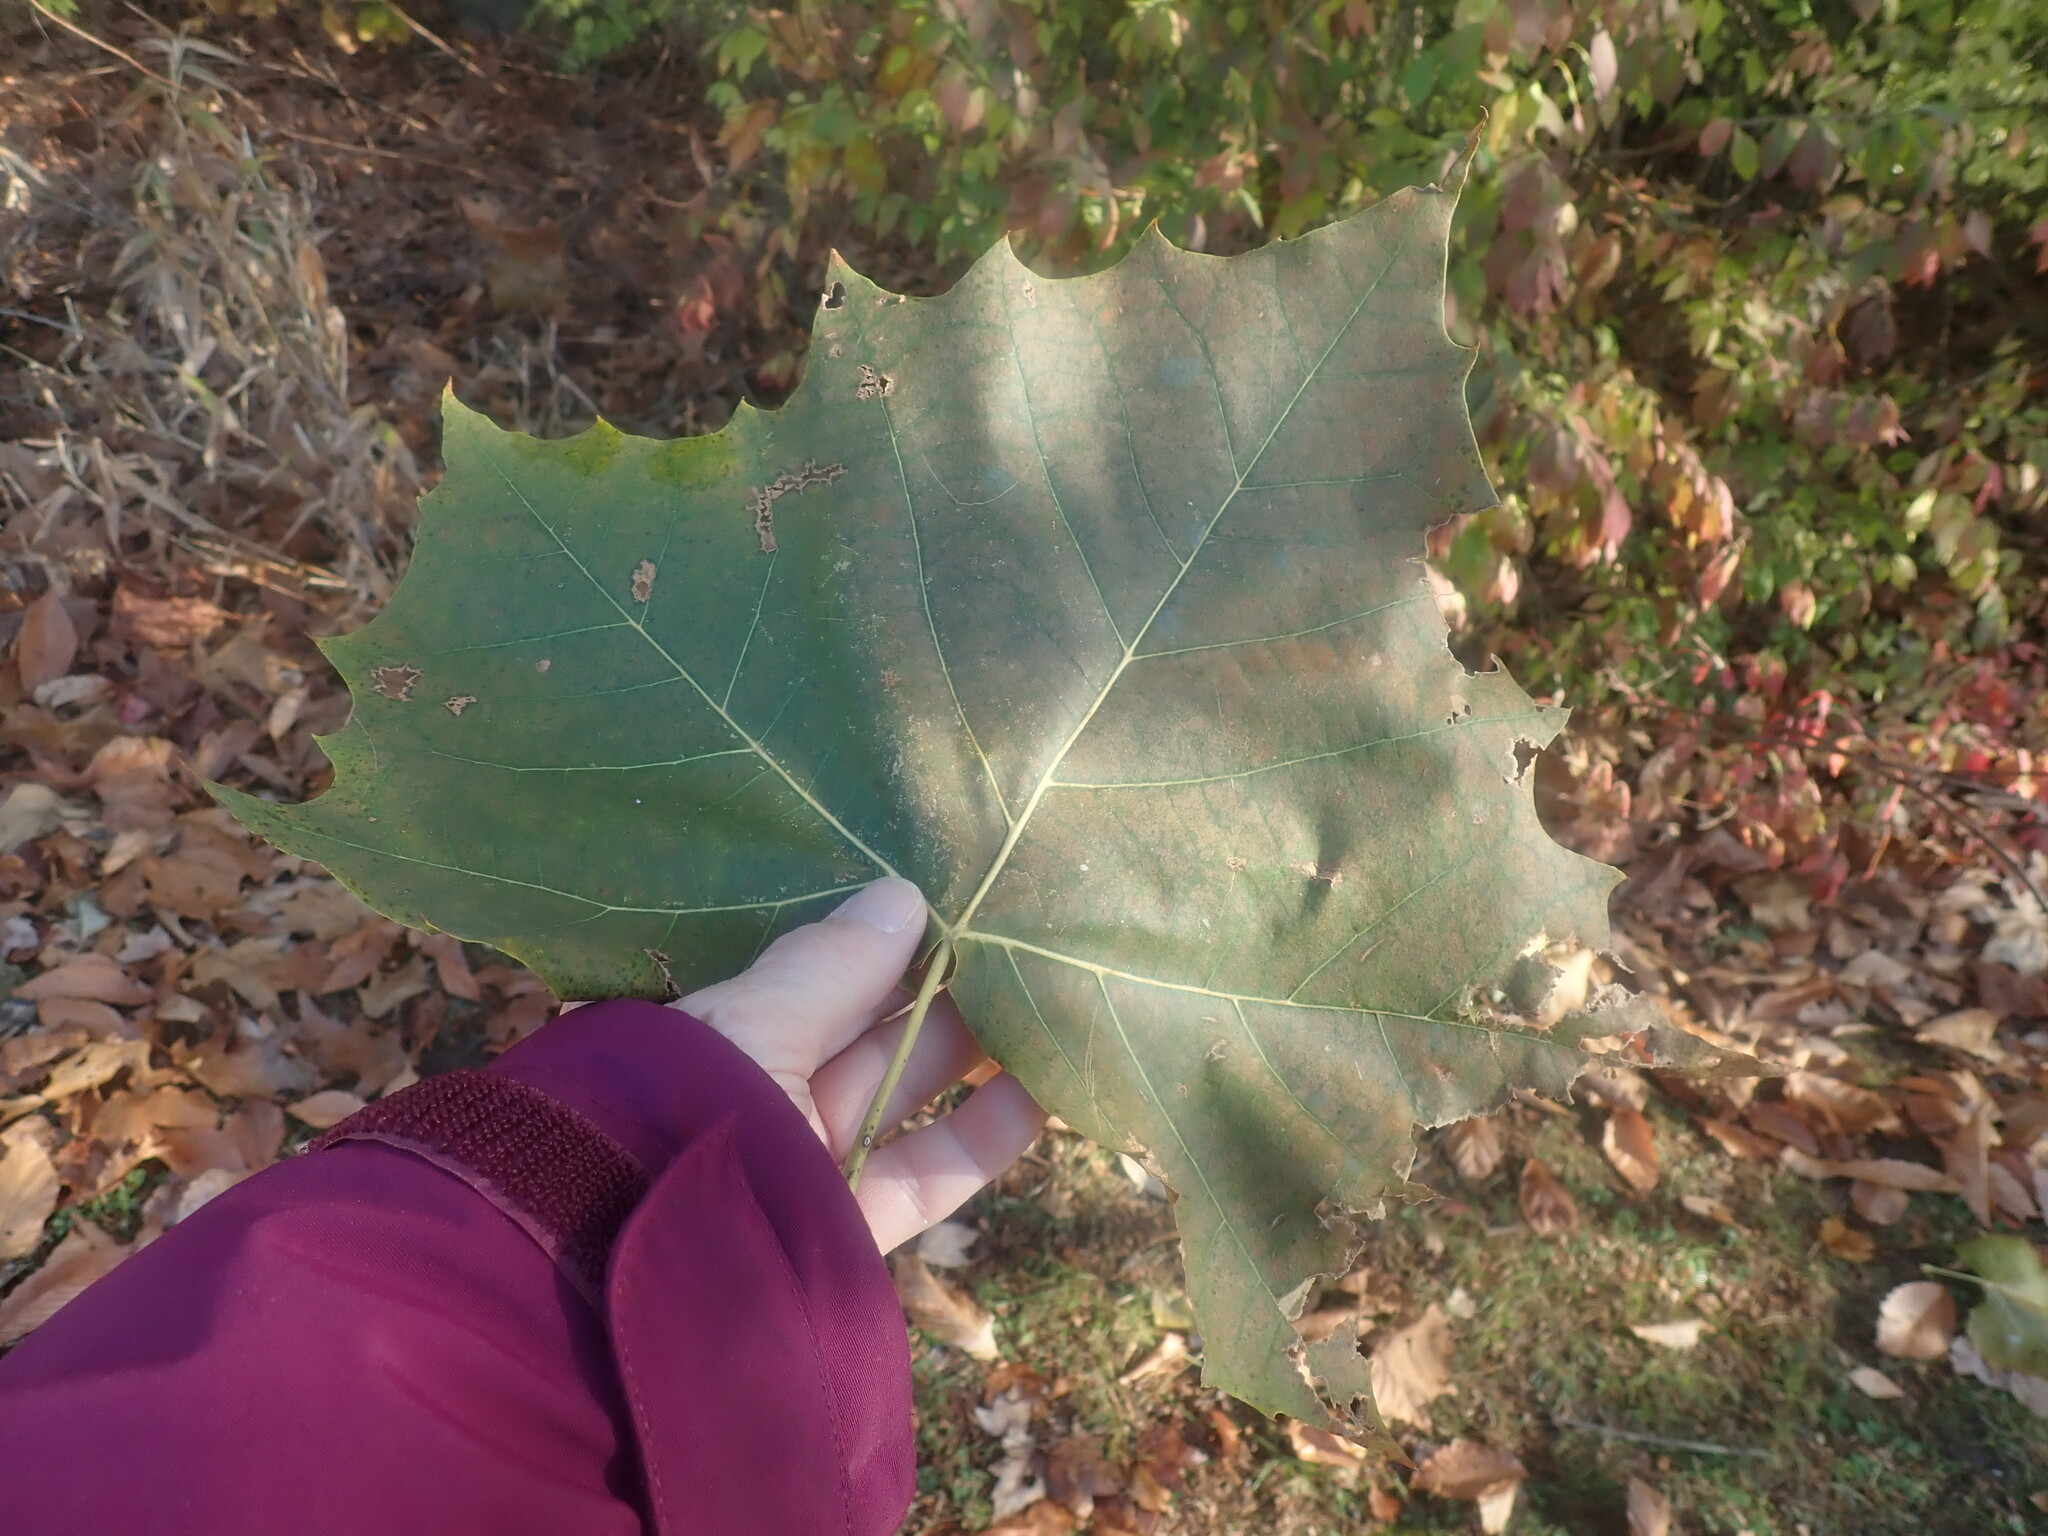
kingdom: Plantae
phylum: Tracheophyta
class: Magnoliopsida
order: Proteales
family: Platanaceae
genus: Platanus
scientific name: Platanus occidentalis
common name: American sycamore
